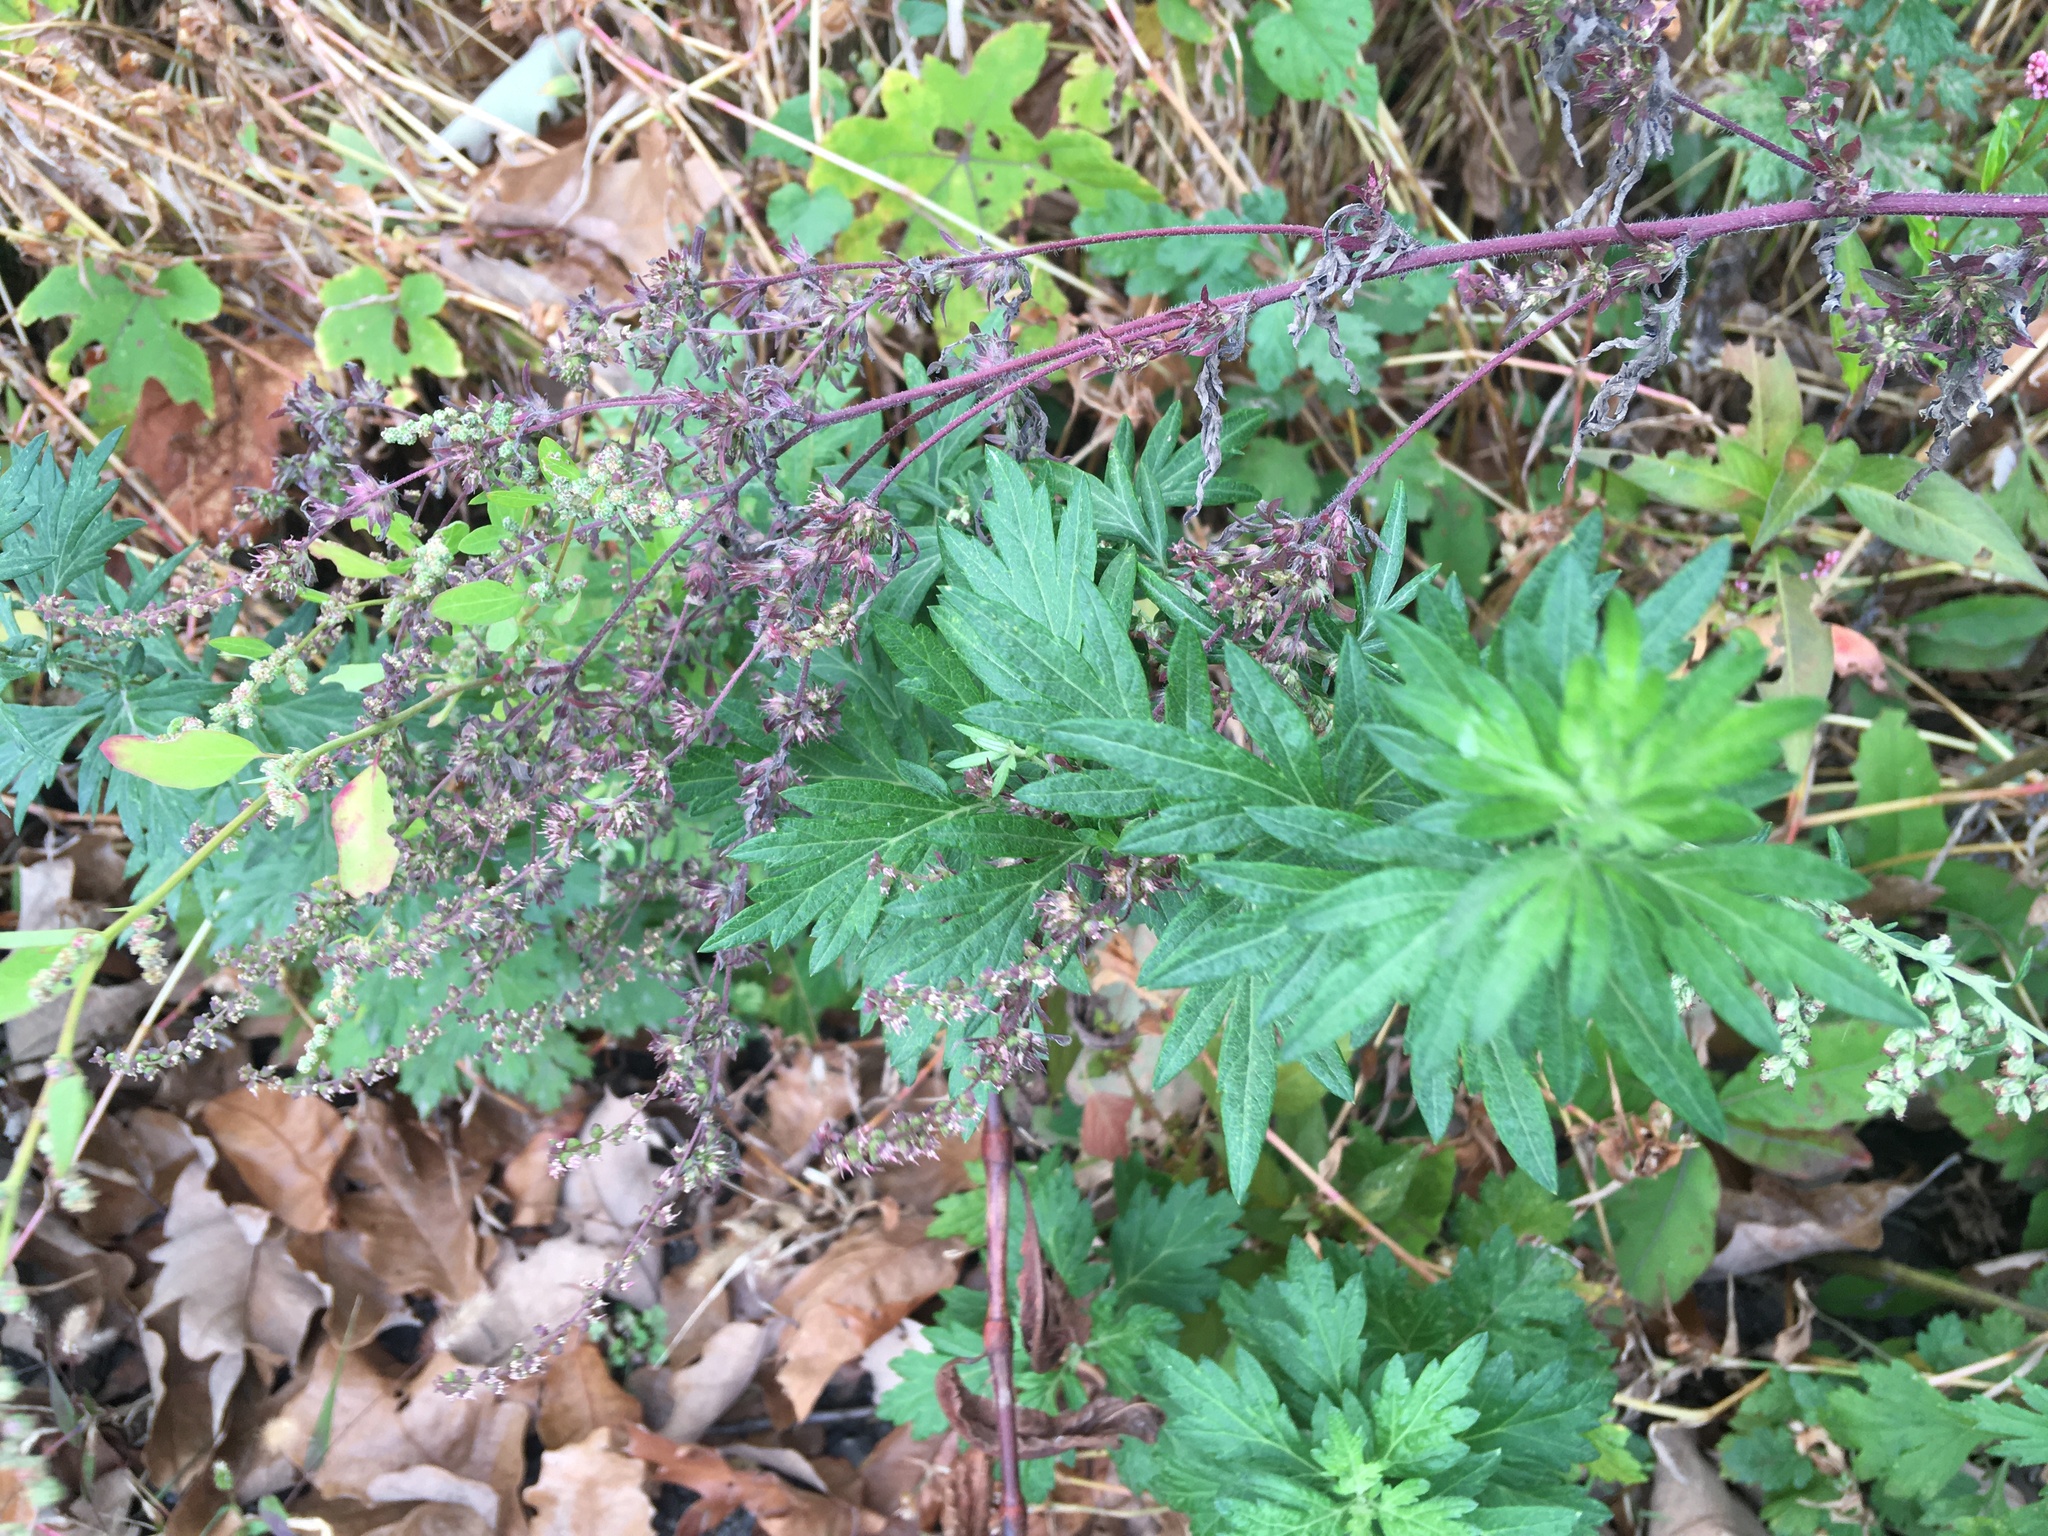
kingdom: Plantae
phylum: Tracheophyta
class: Magnoliopsida
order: Asterales
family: Asteraceae
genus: Artemisia
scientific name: Artemisia vulgaris
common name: Mugwort
